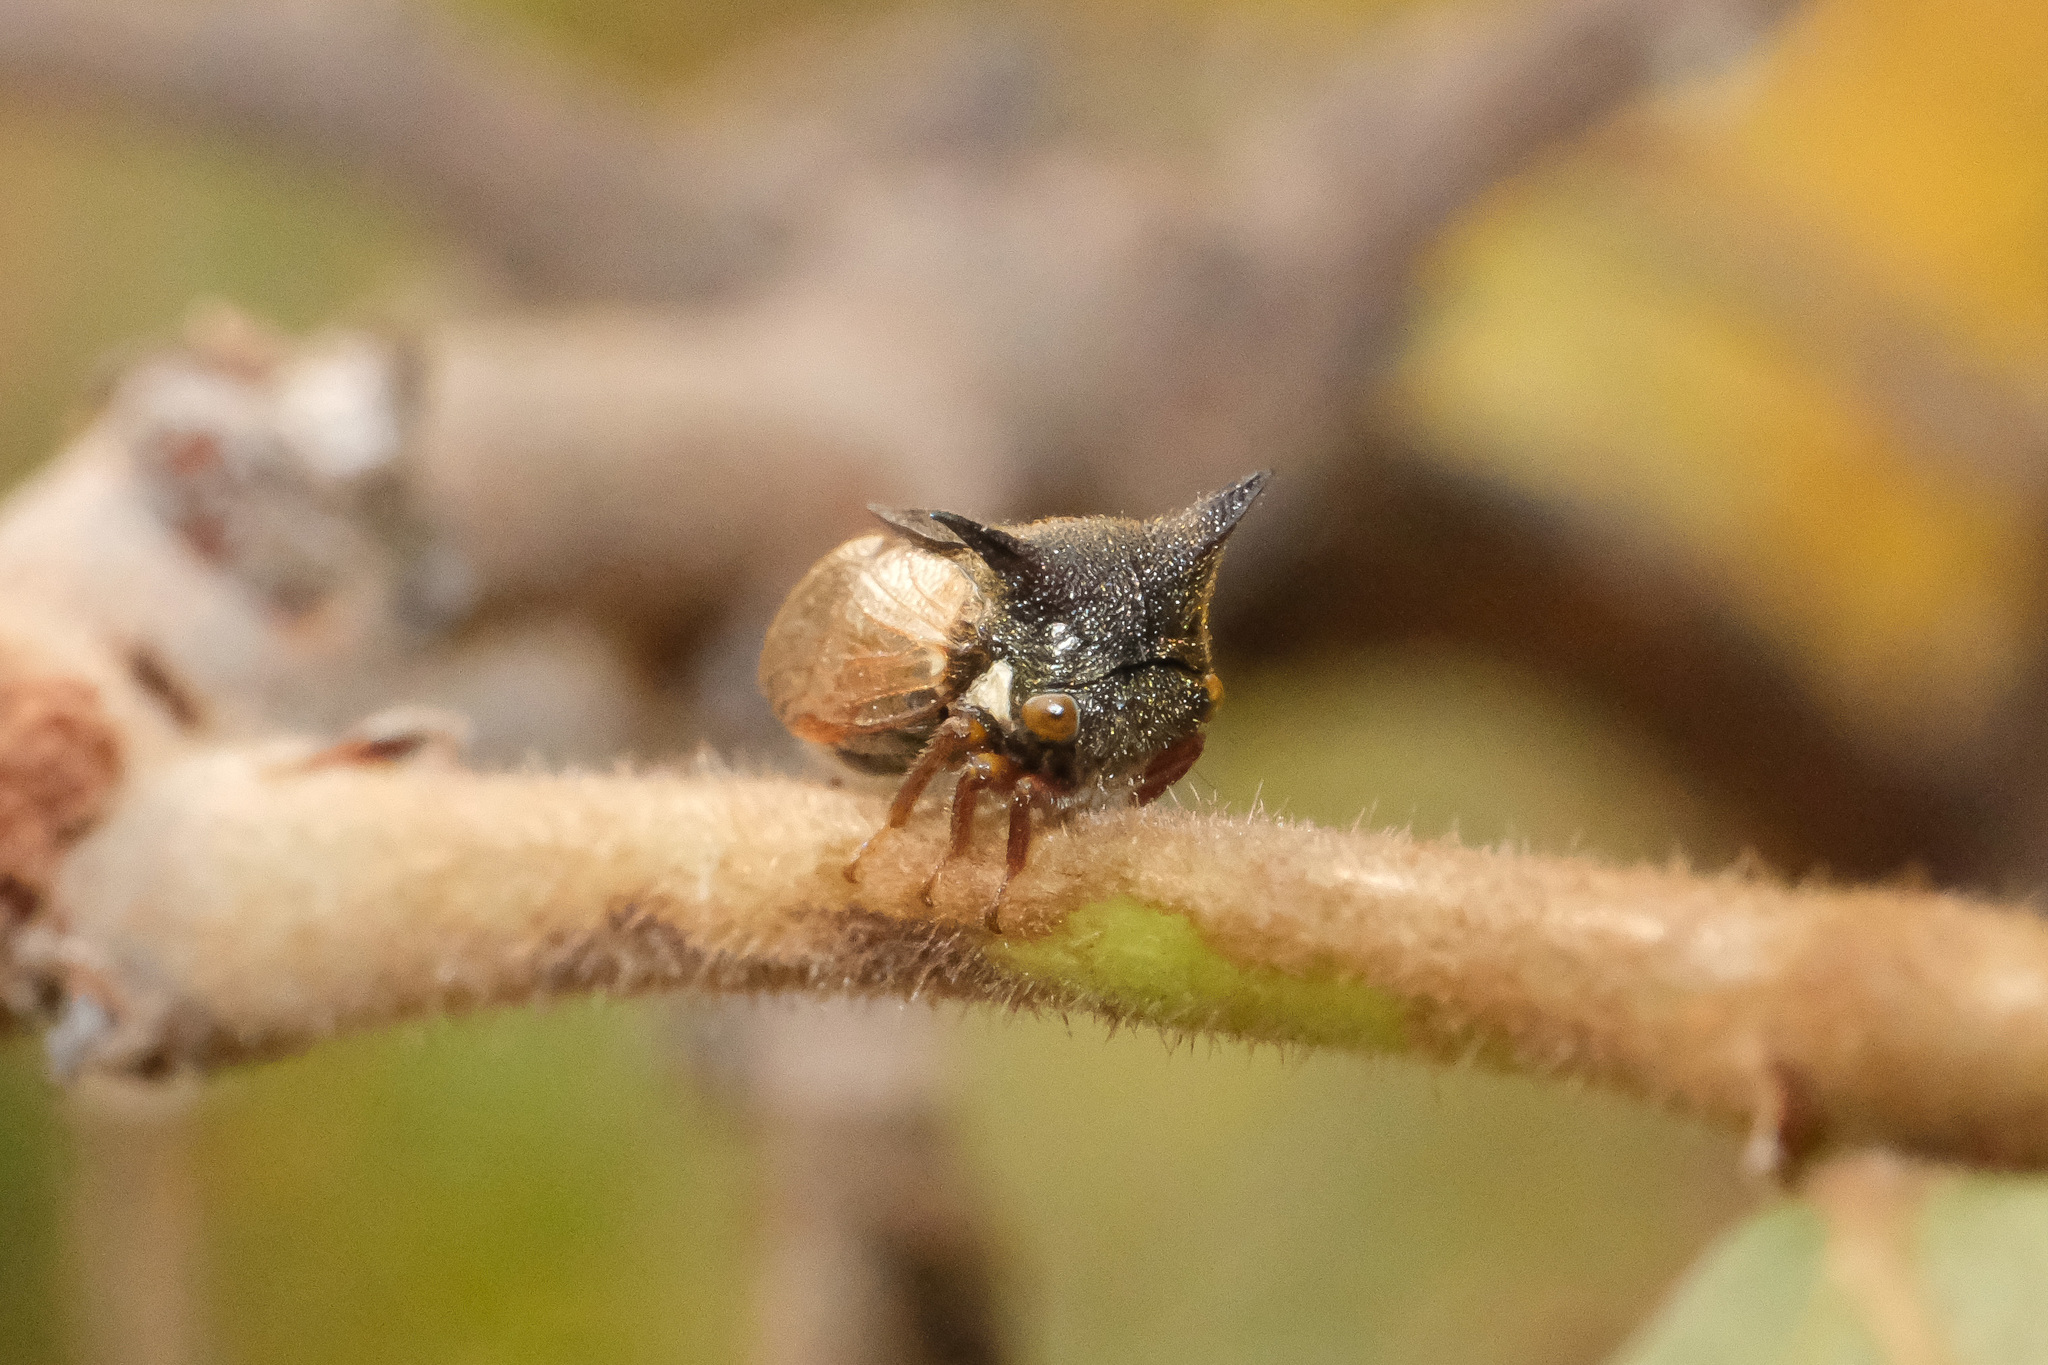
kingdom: Animalia
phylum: Arthropoda
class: Insecta
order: Hemiptera
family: Membracidae
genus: Tricentrus
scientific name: Tricentrus pieli
